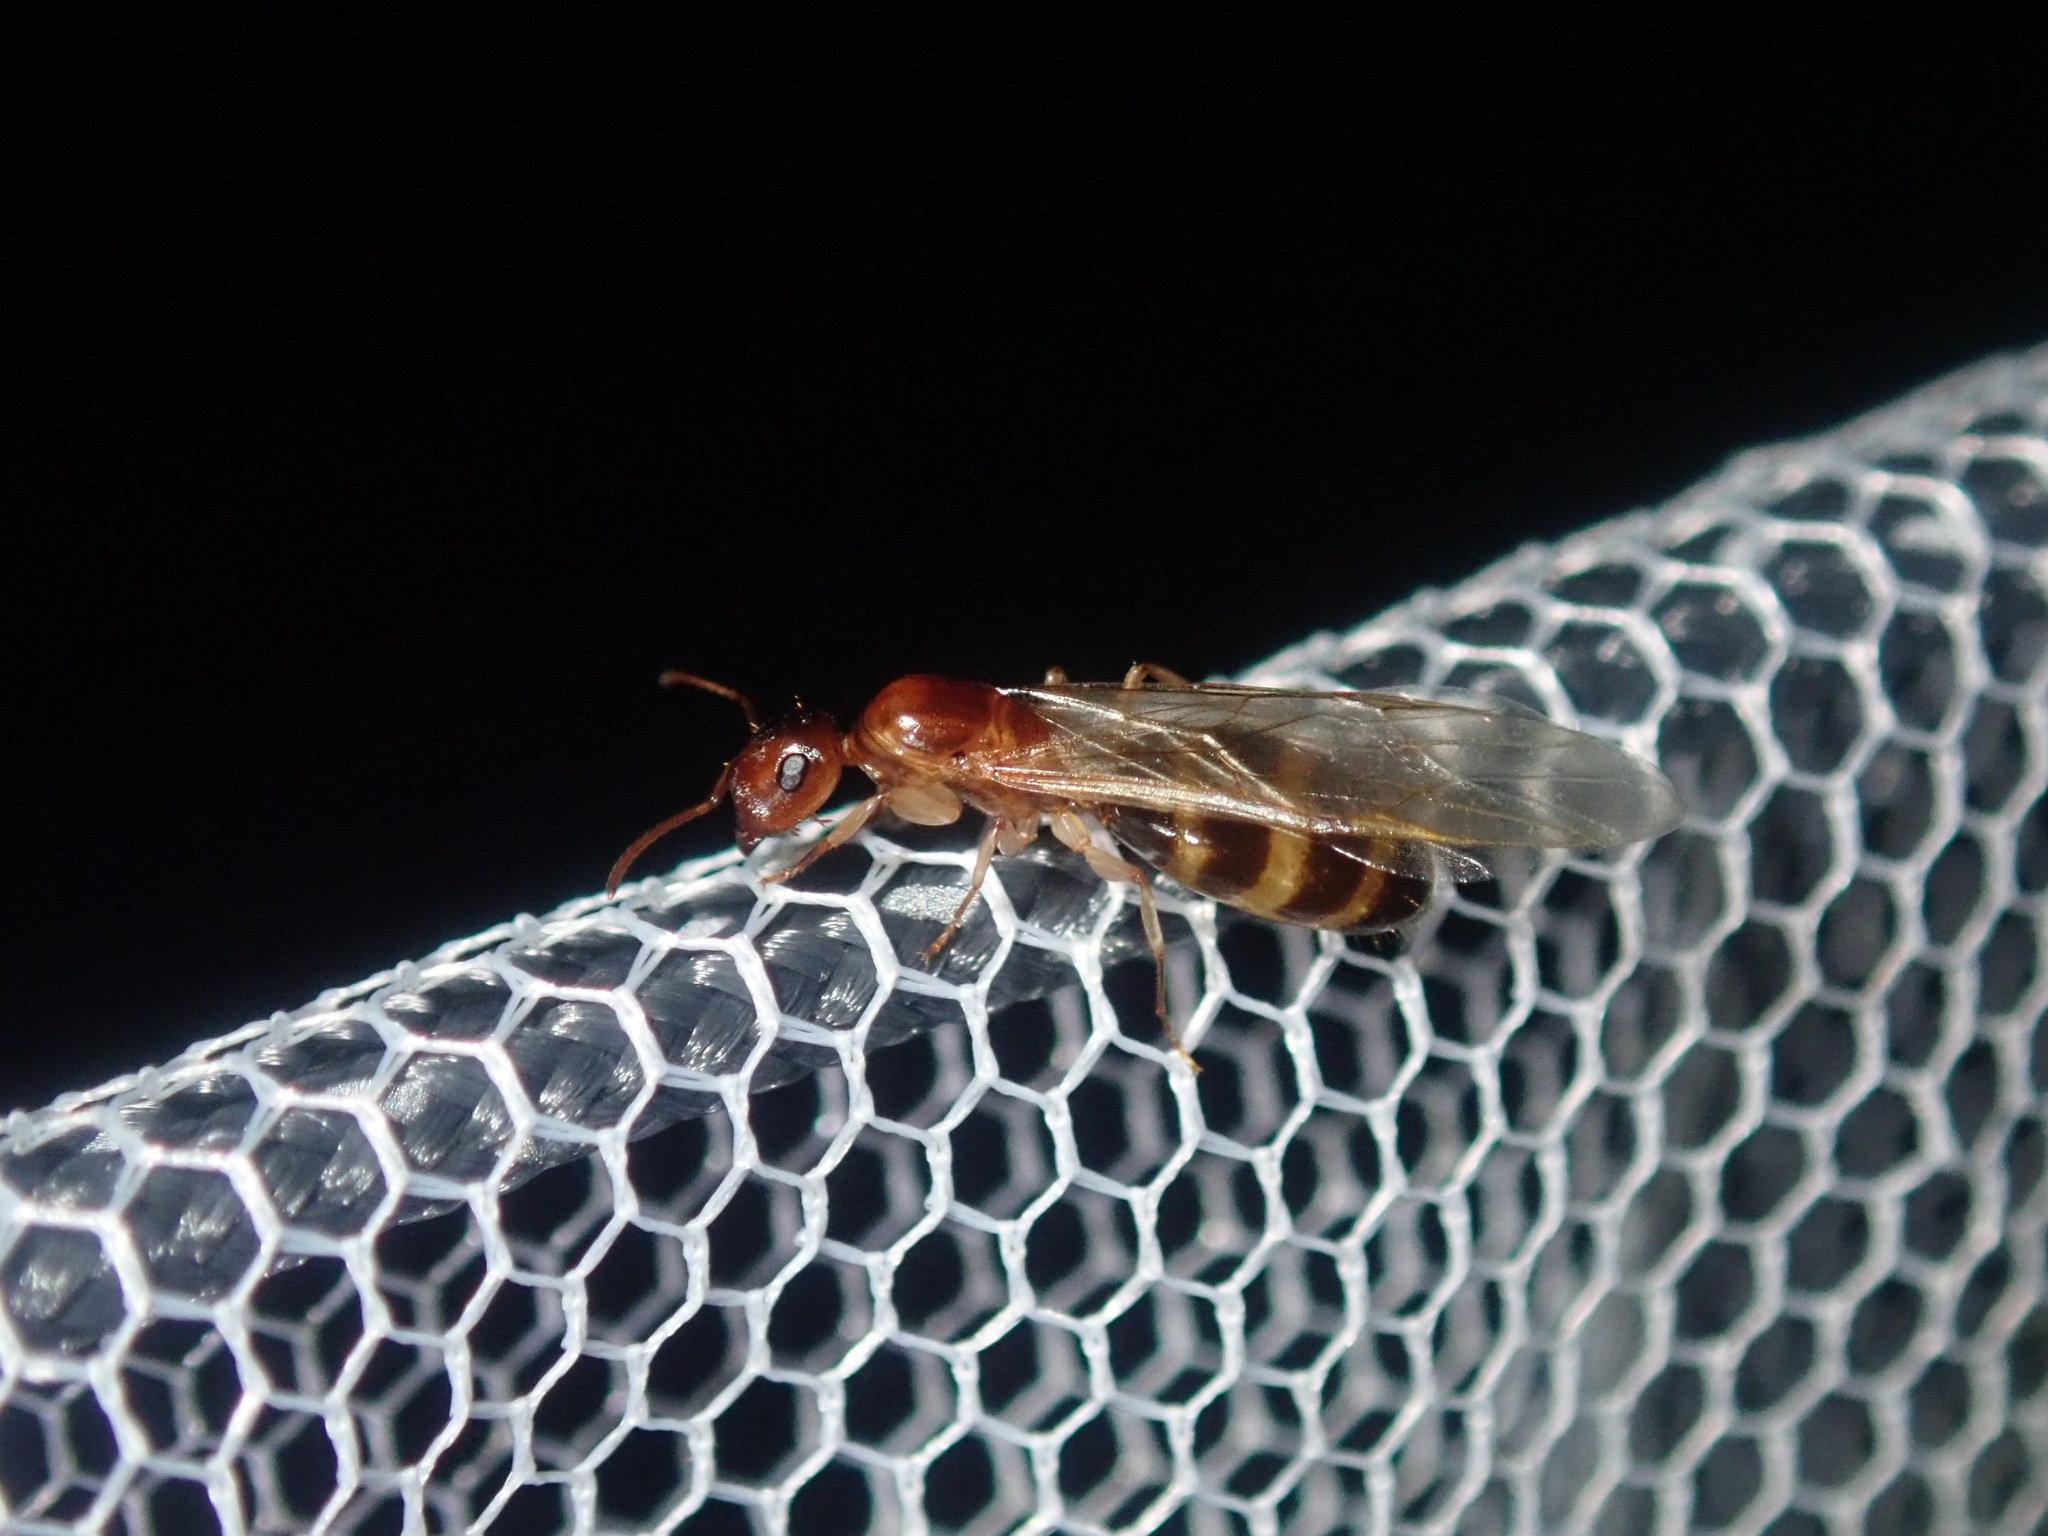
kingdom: Animalia
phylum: Arthropoda
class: Insecta
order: Hymenoptera
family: Formicidae
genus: Colobopsis
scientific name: Colobopsis
